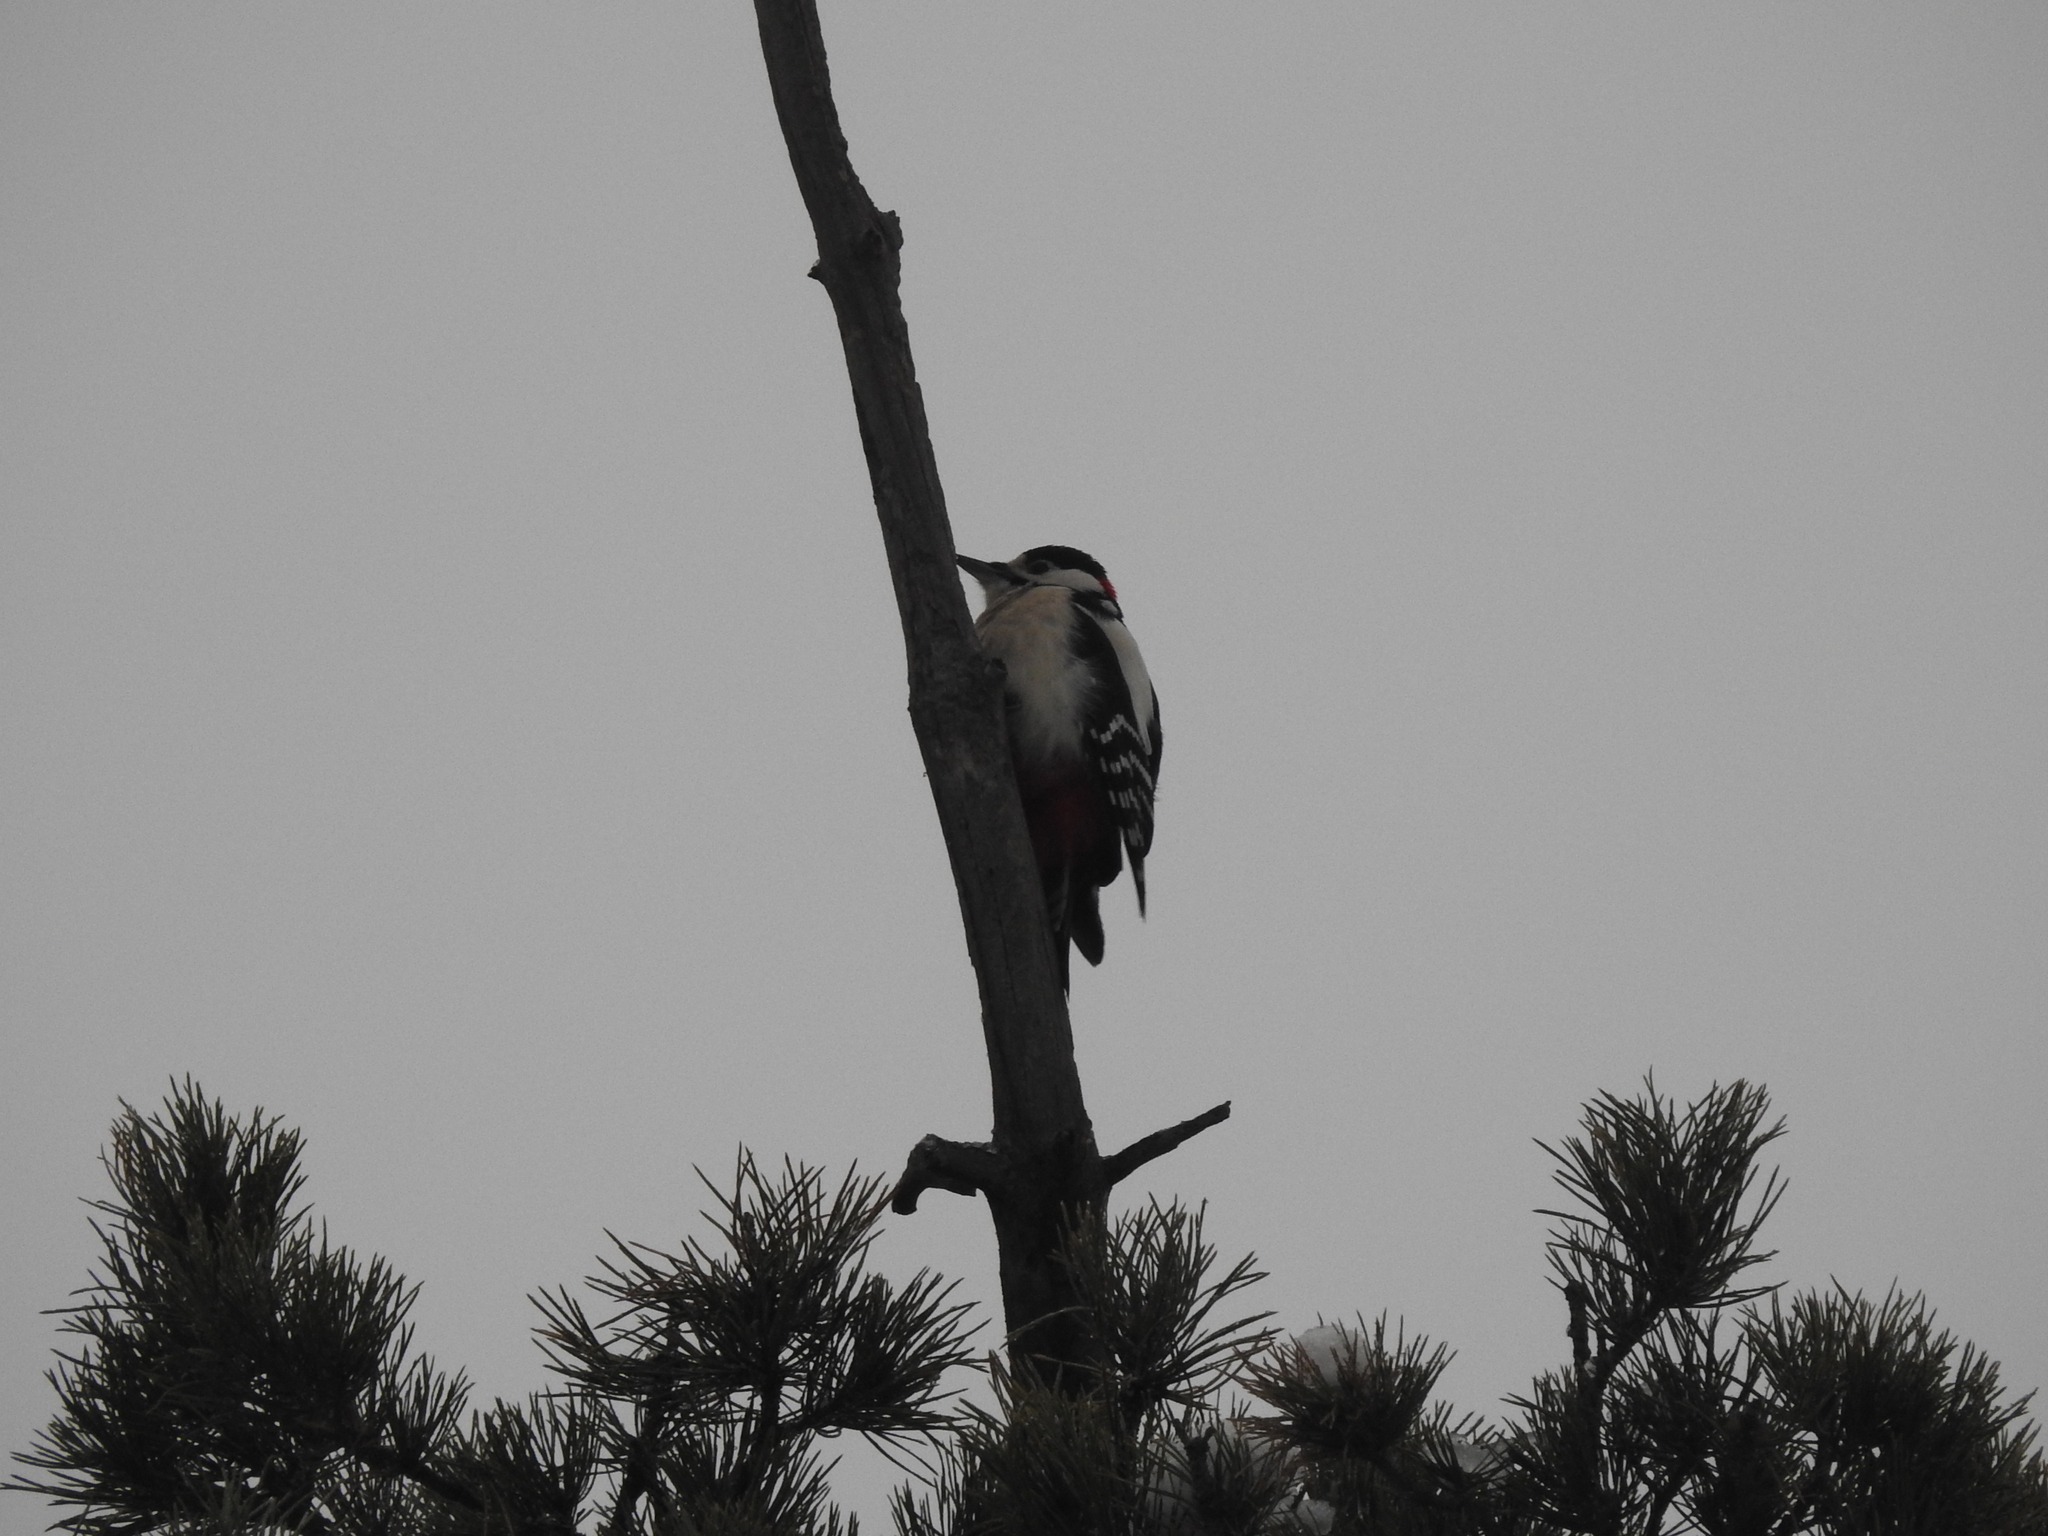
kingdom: Animalia
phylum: Chordata
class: Aves
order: Piciformes
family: Picidae
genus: Dendrocopos
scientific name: Dendrocopos major
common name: Great spotted woodpecker
